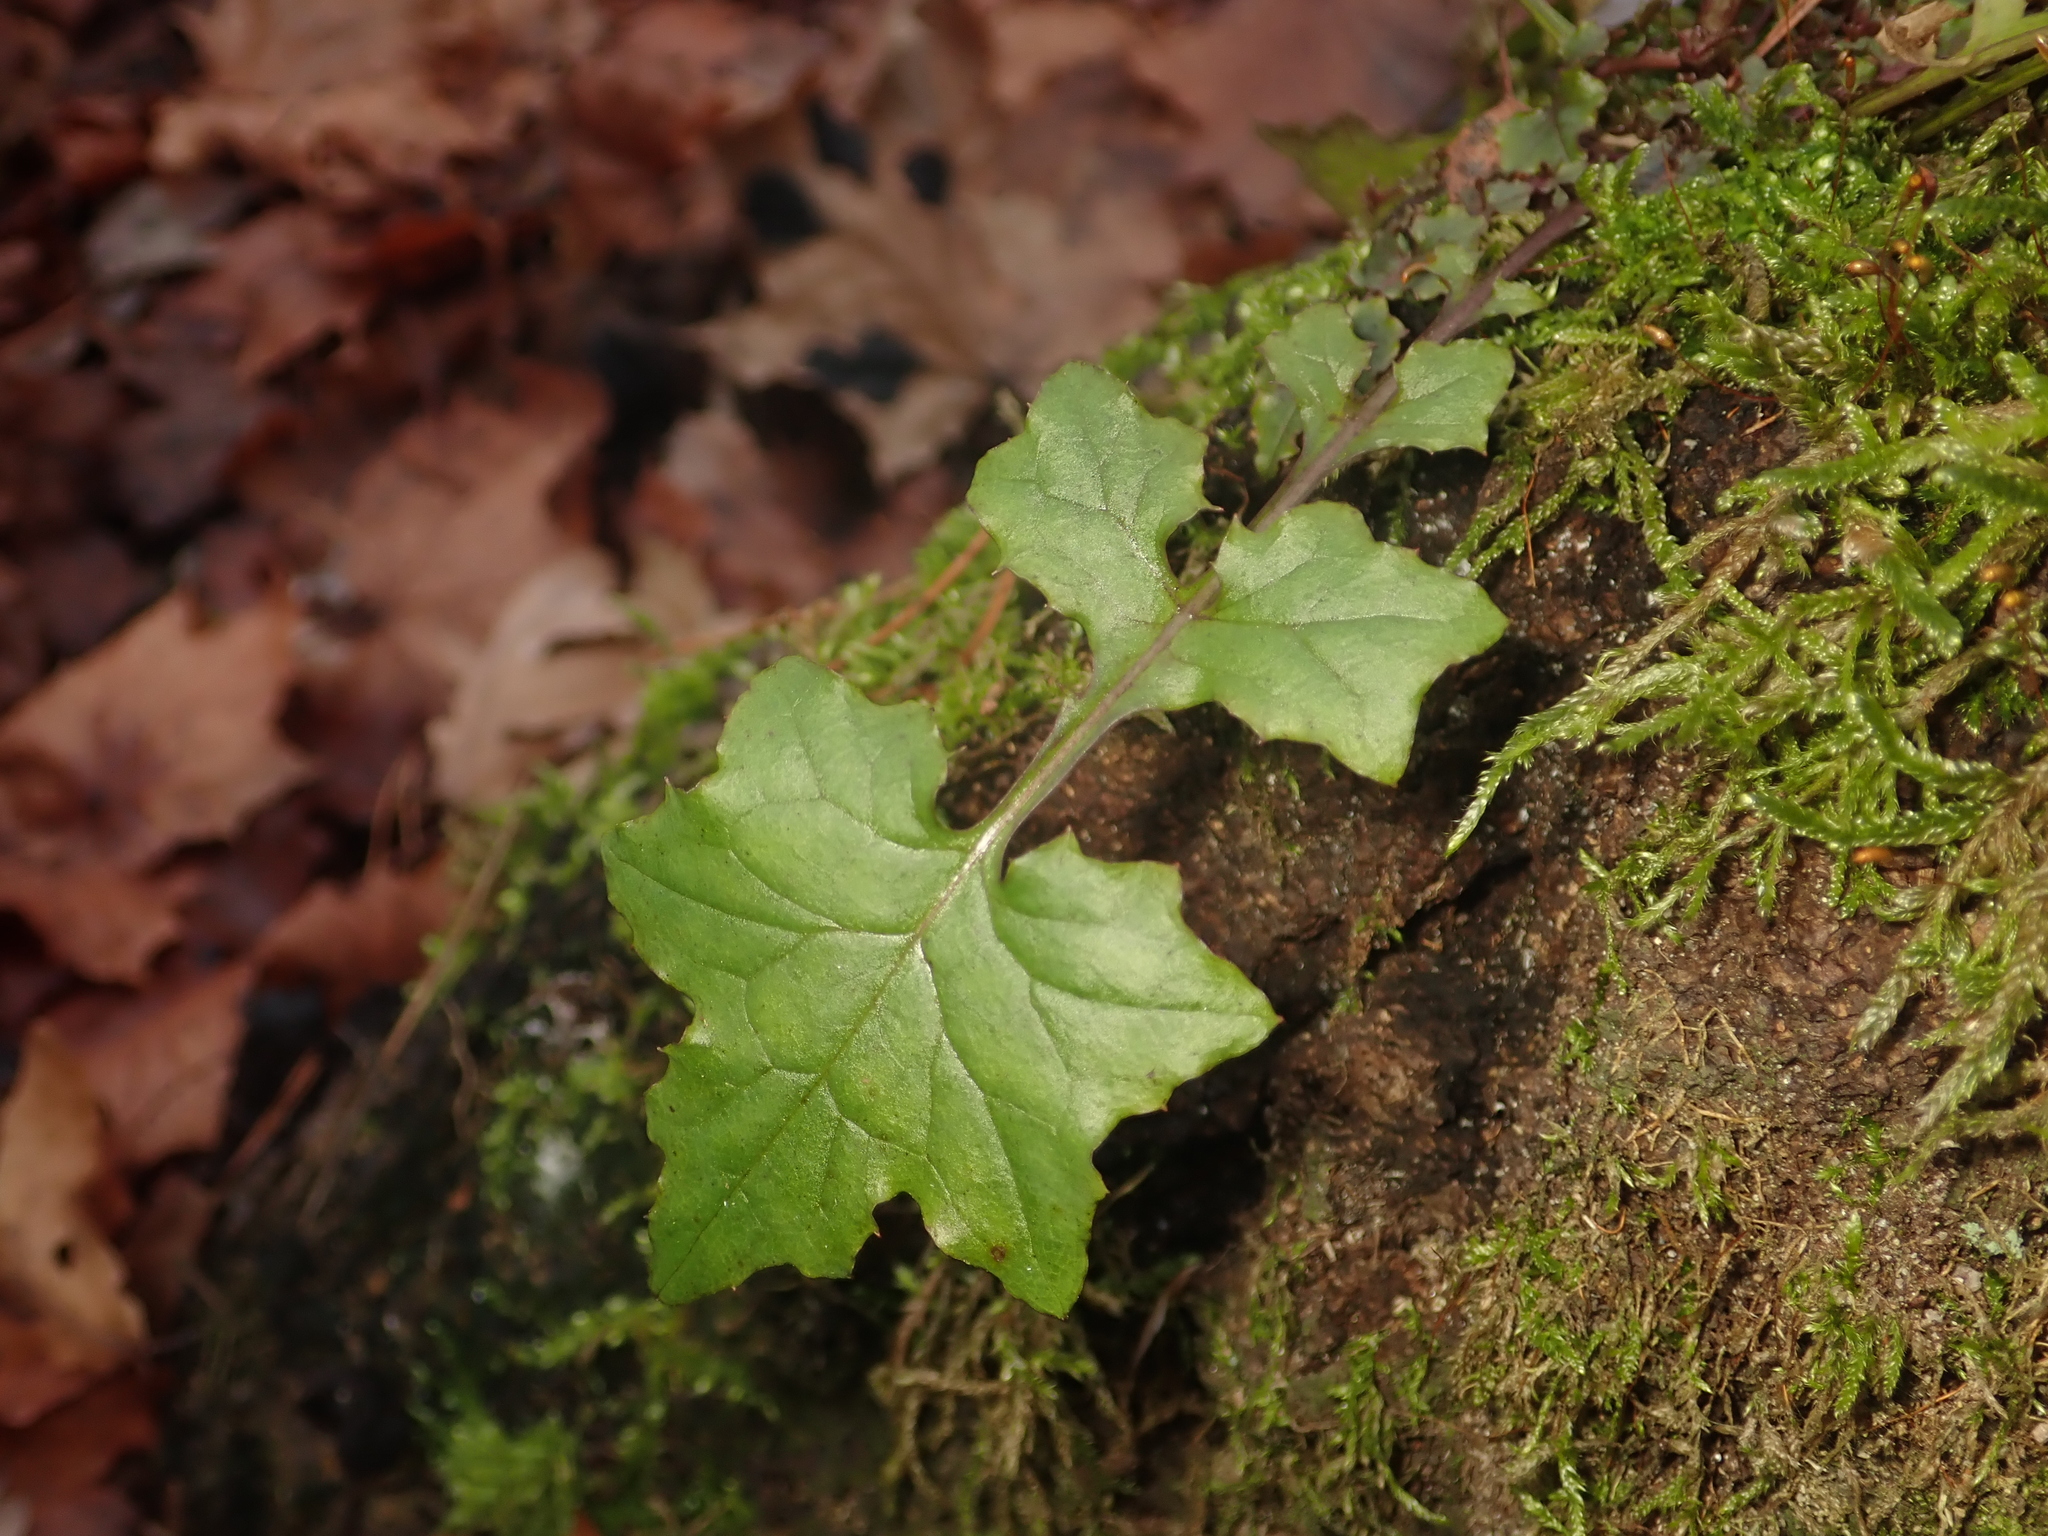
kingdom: Plantae
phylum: Tracheophyta
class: Magnoliopsida
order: Asterales
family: Asteraceae
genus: Mycelis
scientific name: Mycelis muralis
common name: Wall lettuce
